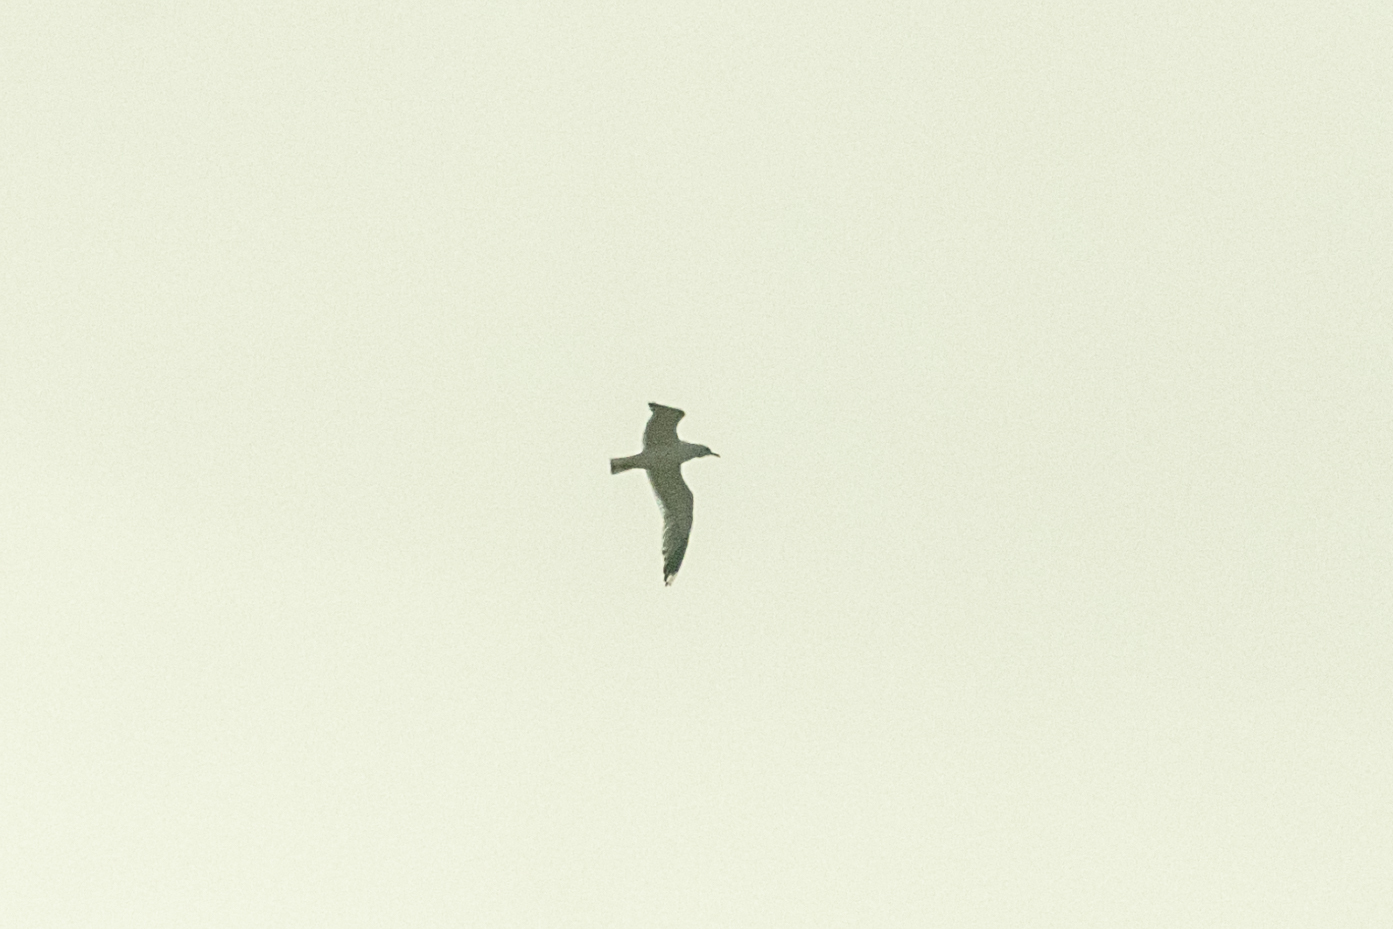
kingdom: Animalia
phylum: Chordata
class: Aves
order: Charadriiformes
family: Laridae
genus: Larus
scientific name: Larus cachinnans
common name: Caspian gull
